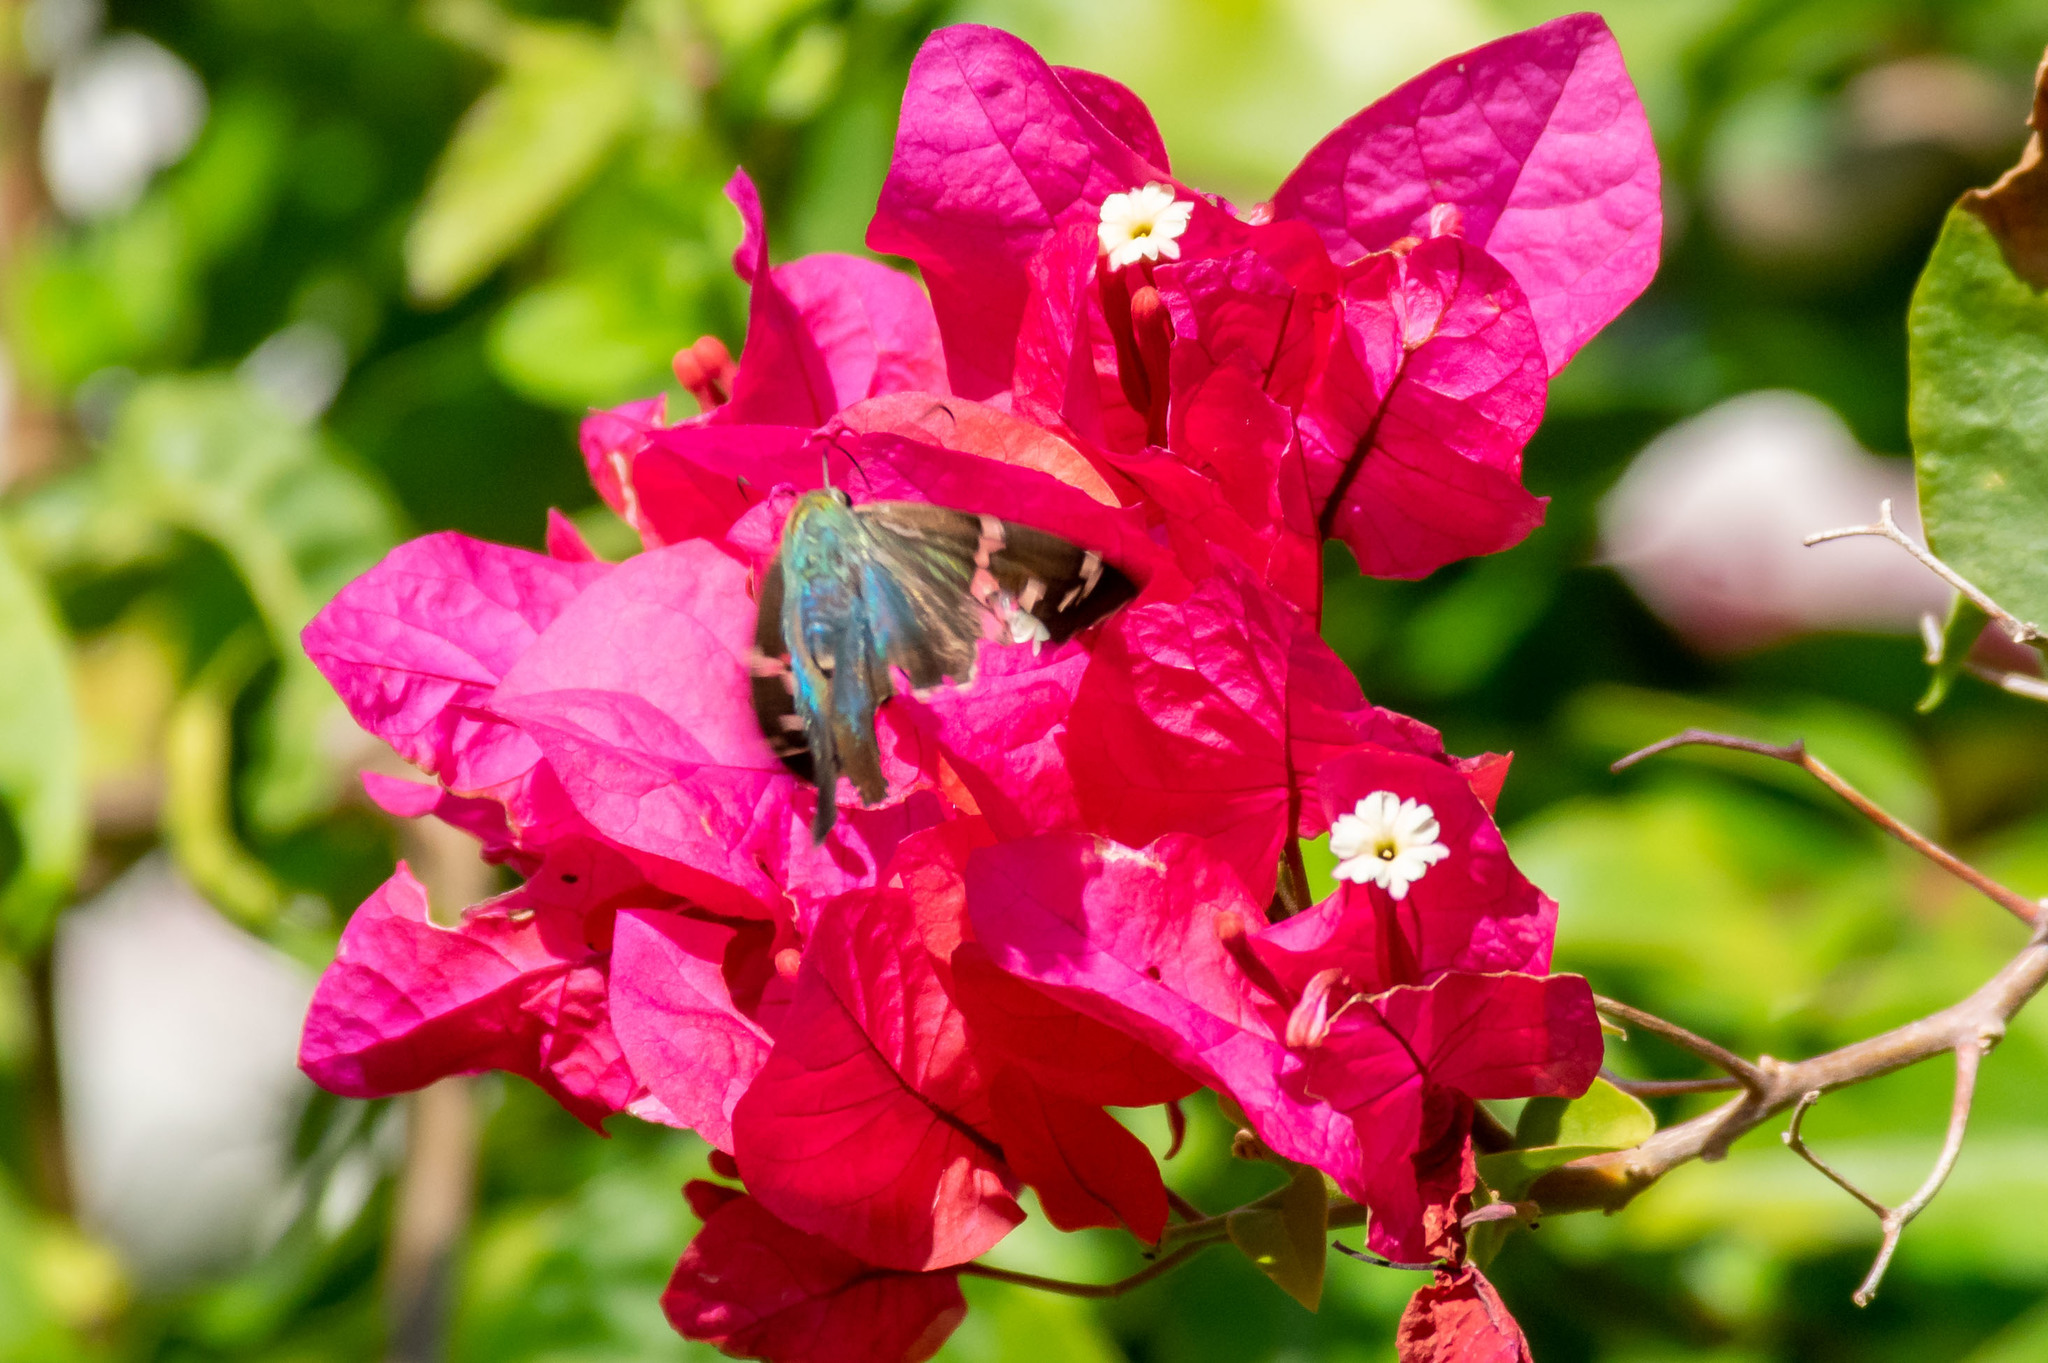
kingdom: Animalia
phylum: Arthropoda
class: Insecta
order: Lepidoptera
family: Hesperiidae
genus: Urbanus
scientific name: Urbanus proteus
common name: Long-tailed skipper
